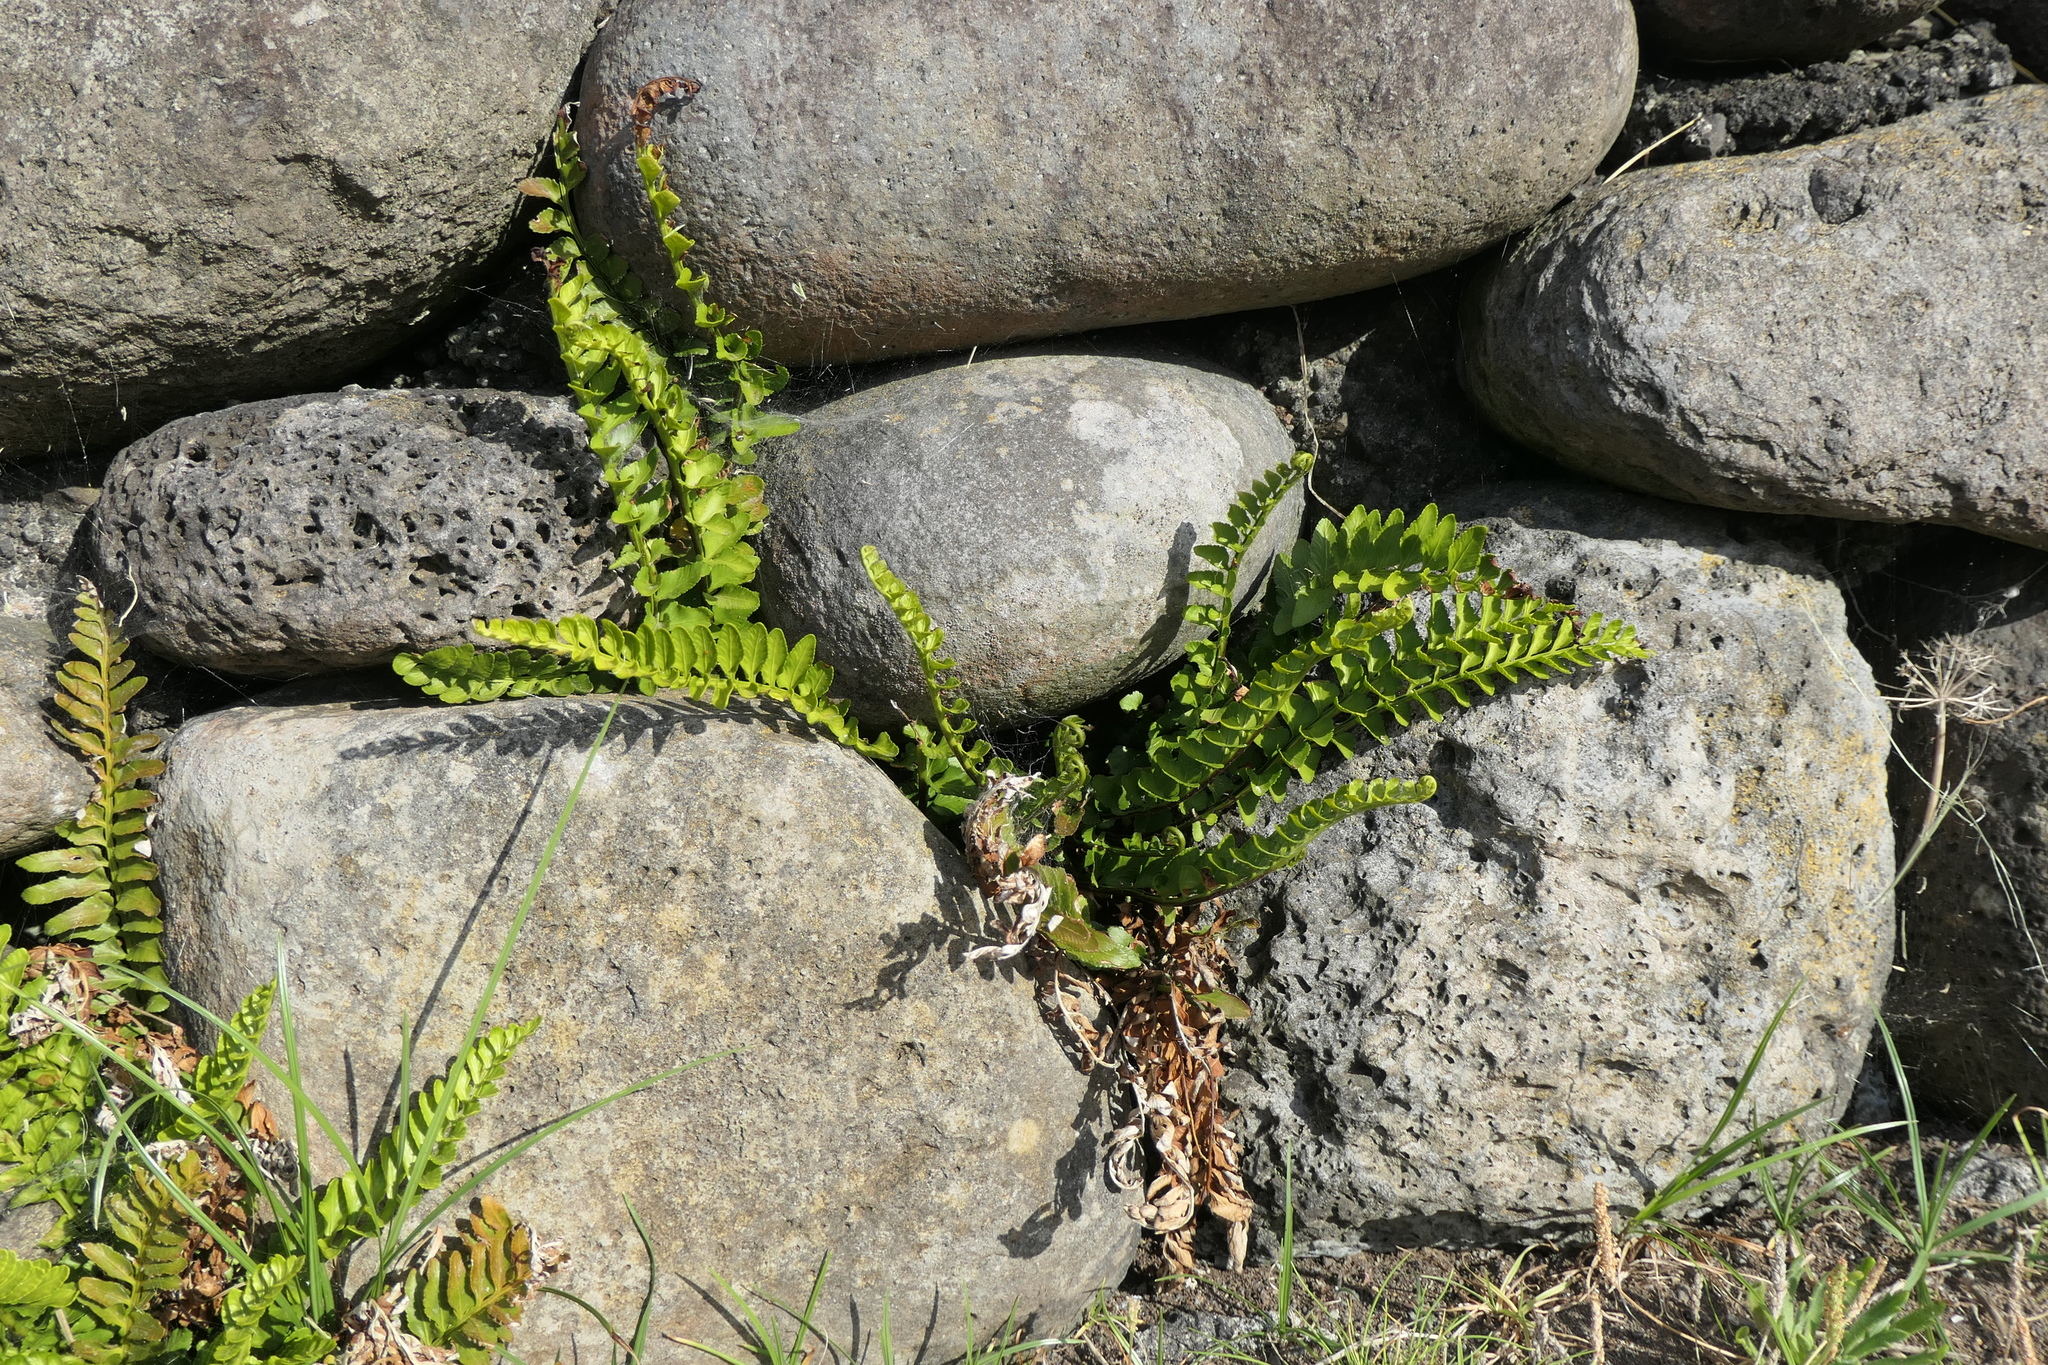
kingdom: Plantae
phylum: Tracheophyta
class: Polypodiopsida
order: Polypodiales
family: Aspleniaceae
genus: Asplenium
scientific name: Asplenium marinum
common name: Sea spleenwort
